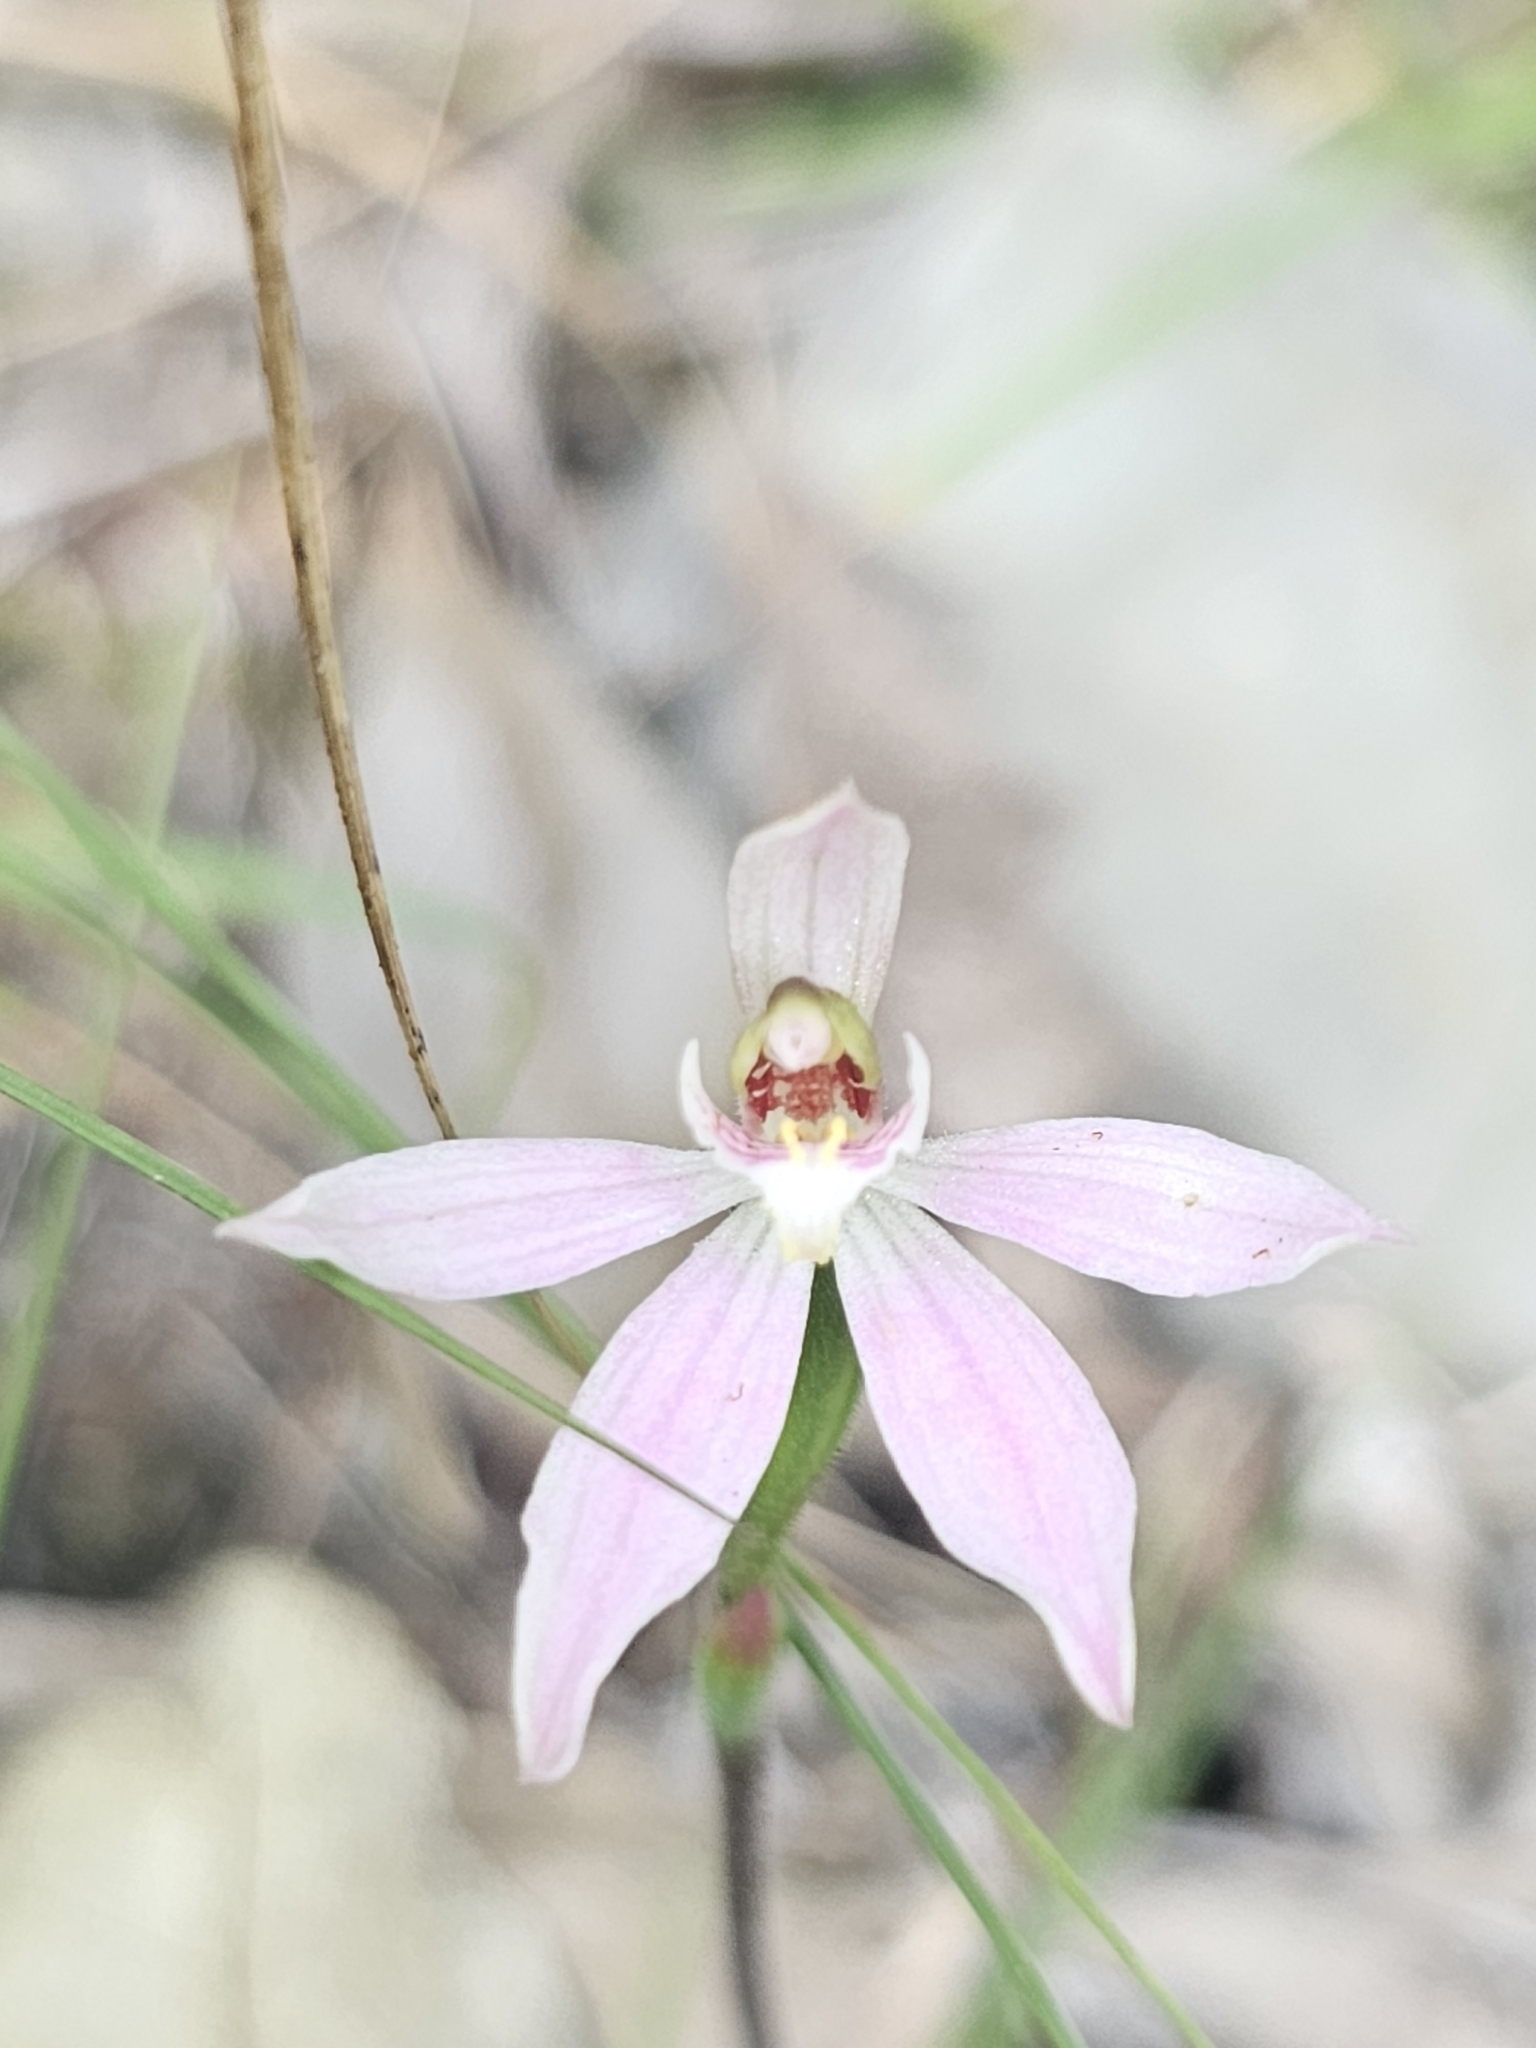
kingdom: Plantae
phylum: Tracheophyta
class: Liliopsida
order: Asparagales
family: Orchidaceae
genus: Caladenia
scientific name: Caladenia variegata
